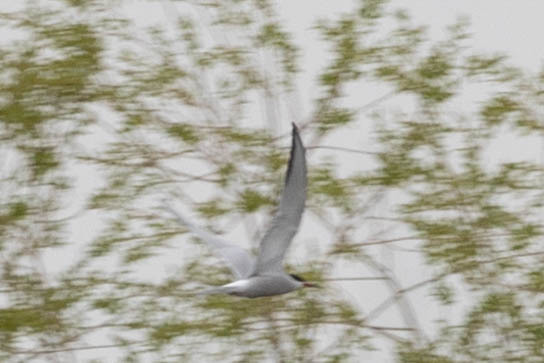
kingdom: Animalia
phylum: Chordata
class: Aves
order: Charadriiformes
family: Laridae
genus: Sterna
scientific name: Sterna hirundo
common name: Common tern
